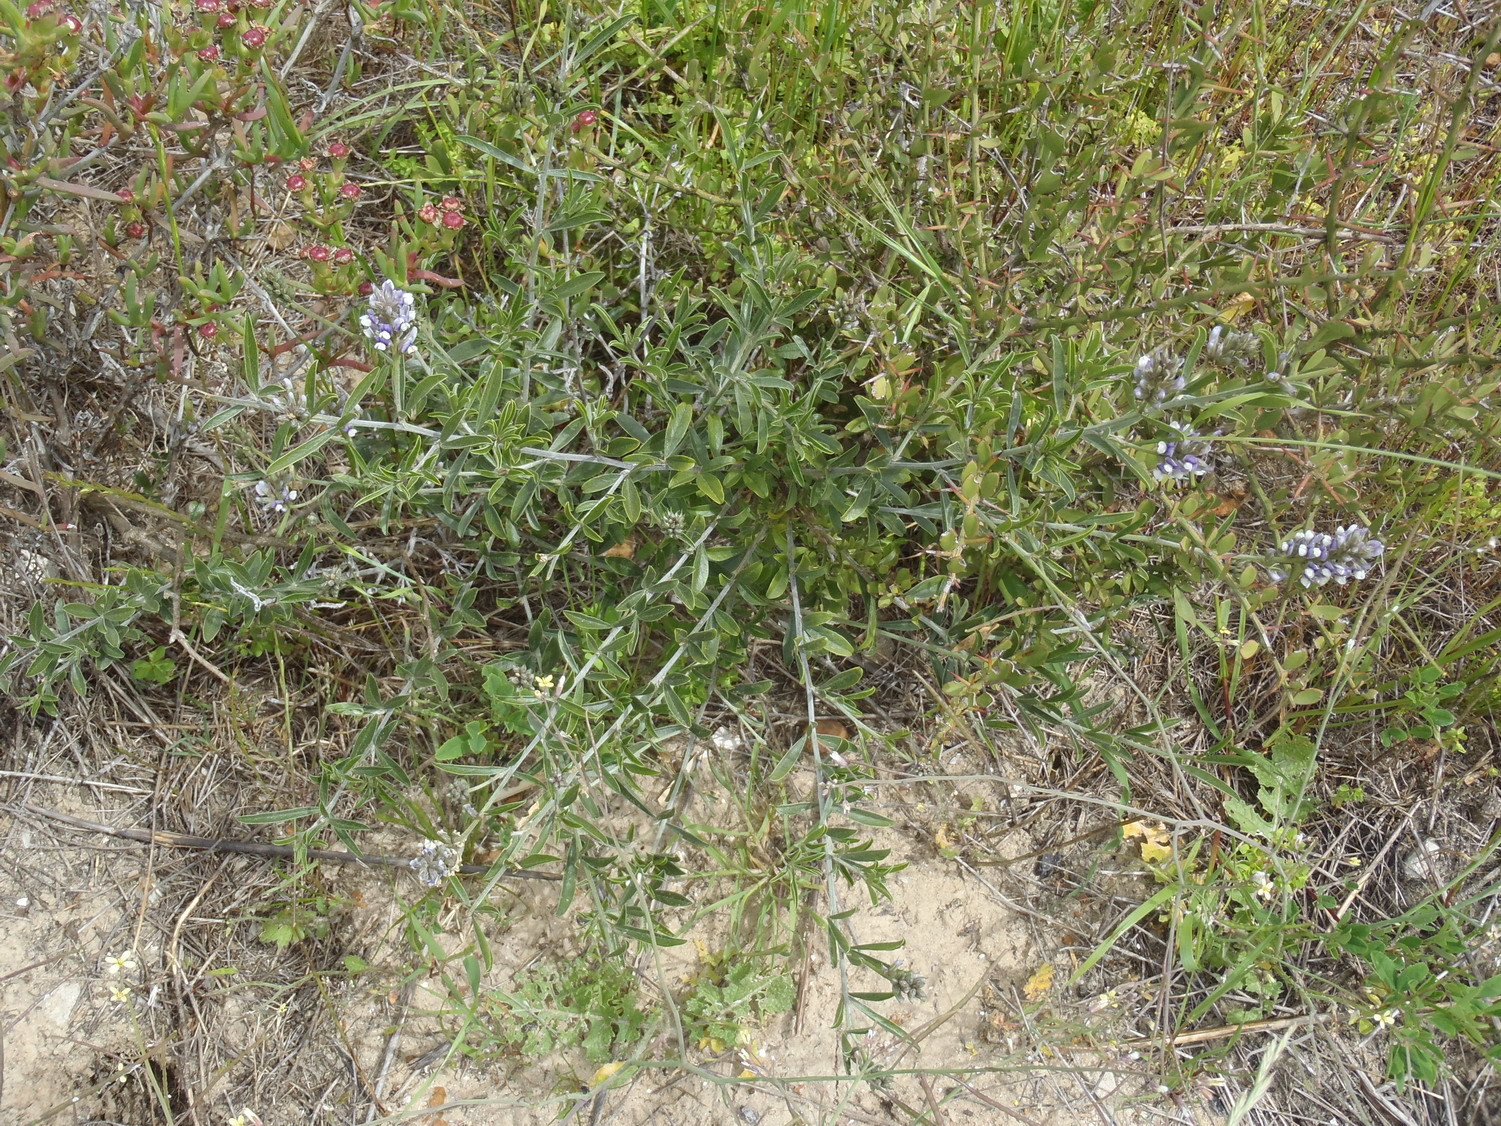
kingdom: Plantae
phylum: Tracheophyta
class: Magnoliopsida
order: Fabales
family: Fabaceae
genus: Psoralea
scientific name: Psoralea venusta
